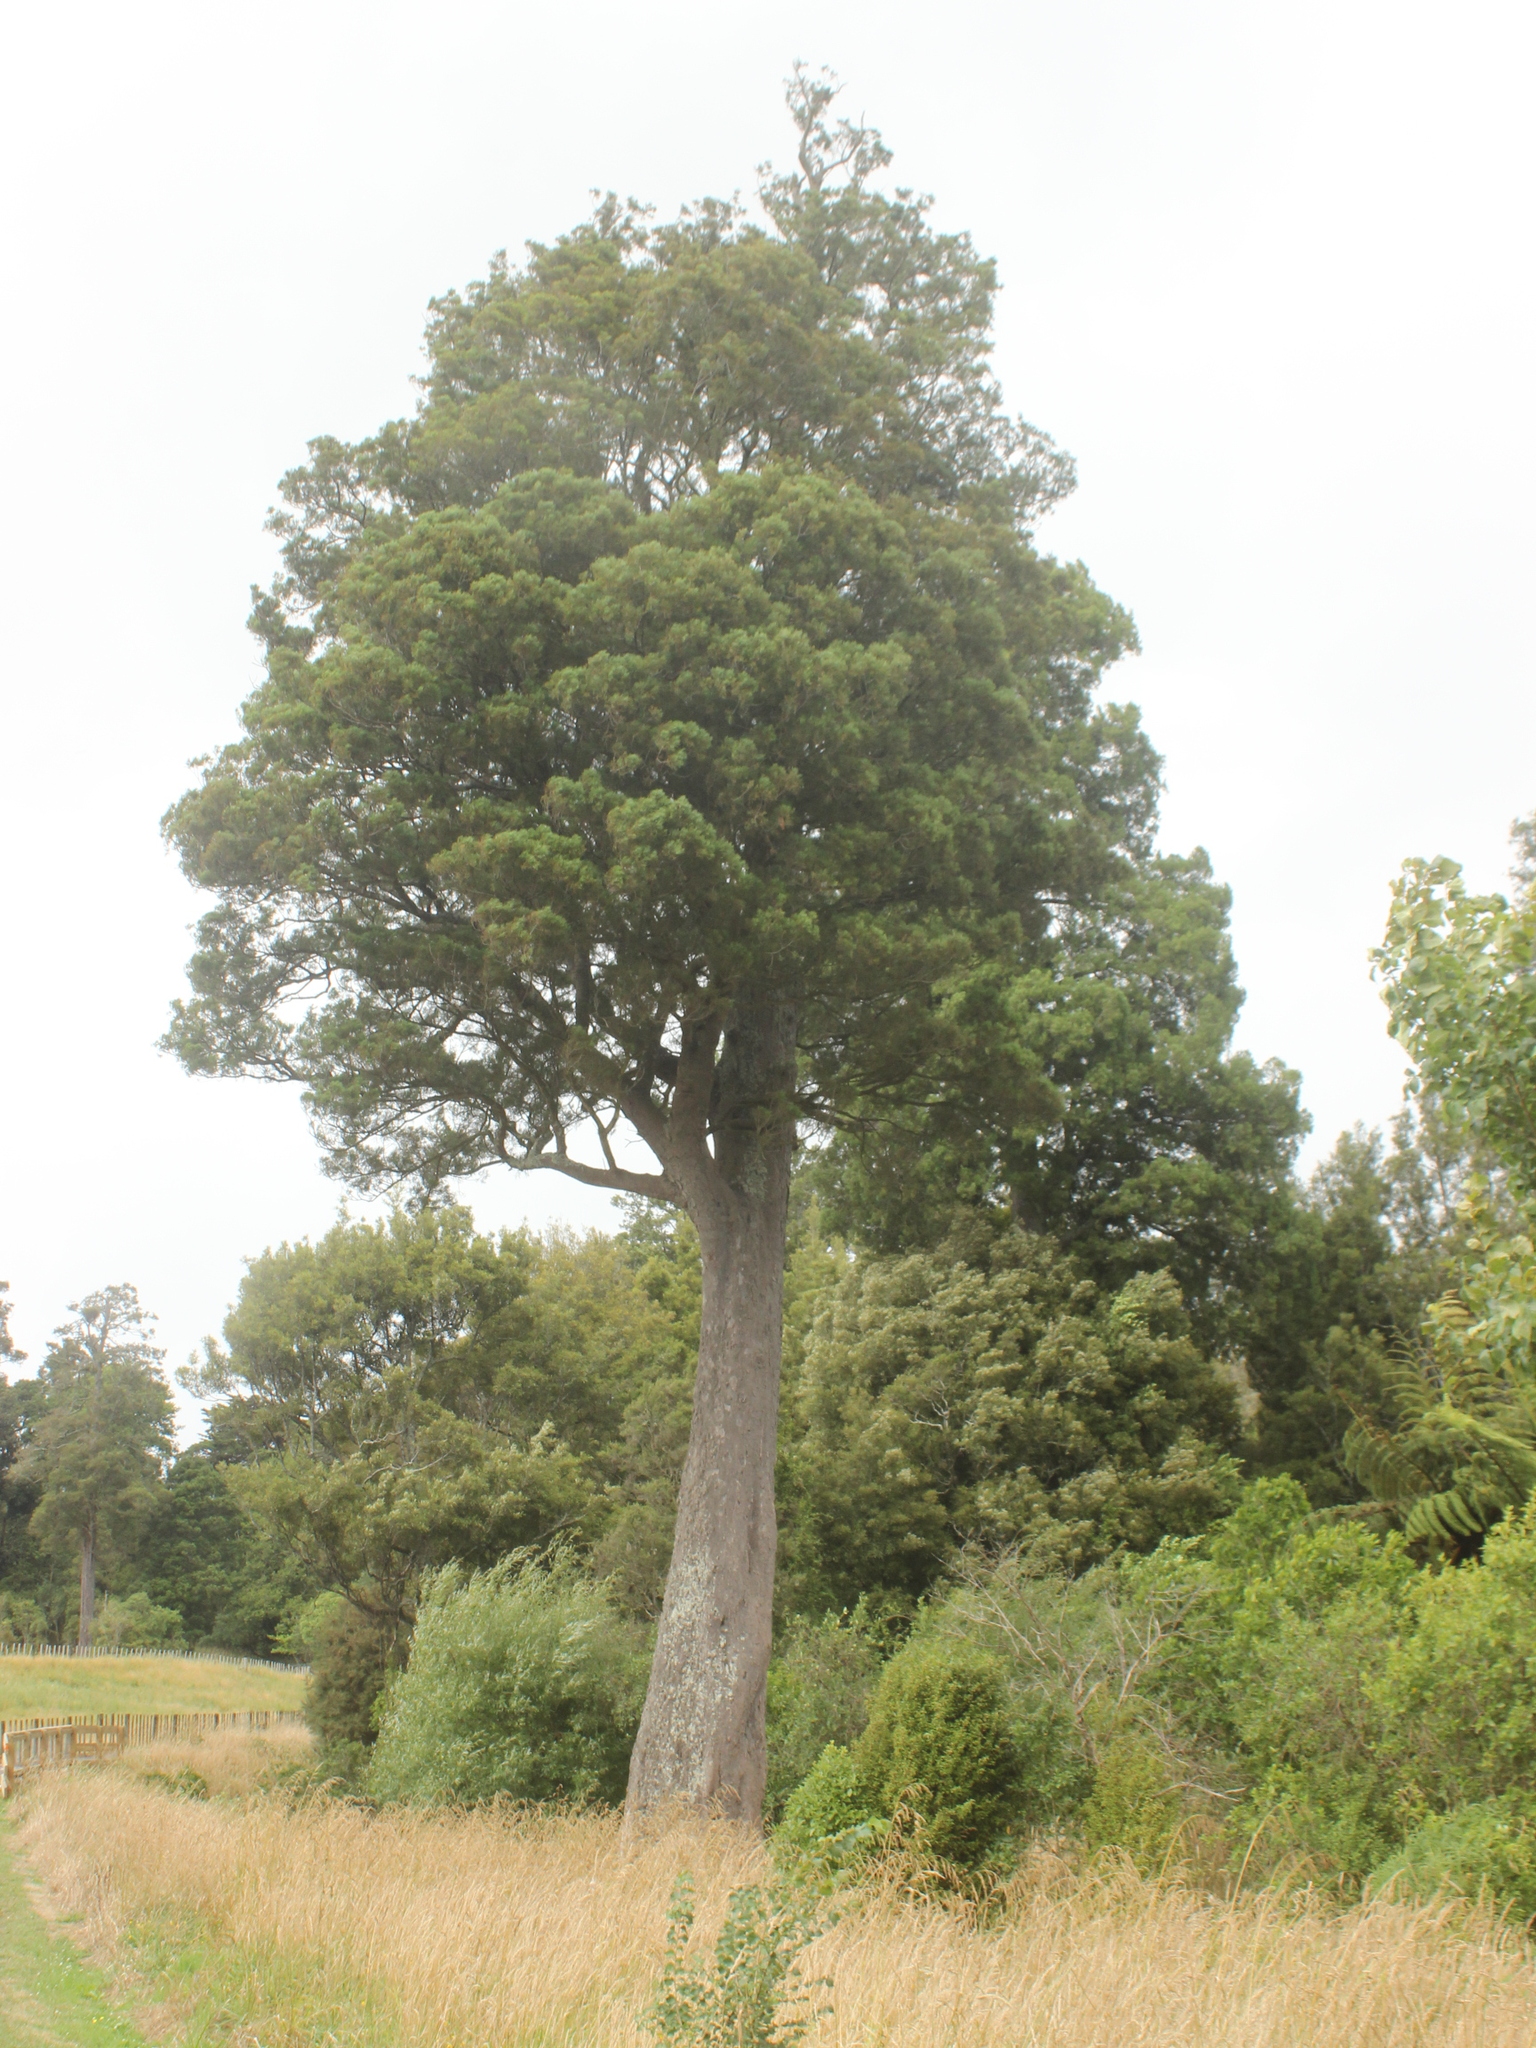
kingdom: Plantae
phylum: Tracheophyta
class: Pinopsida
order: Pinales
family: Podocarpaceae
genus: Dacrycarpus
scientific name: Dacrycarpus dacrydioides
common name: White pine
